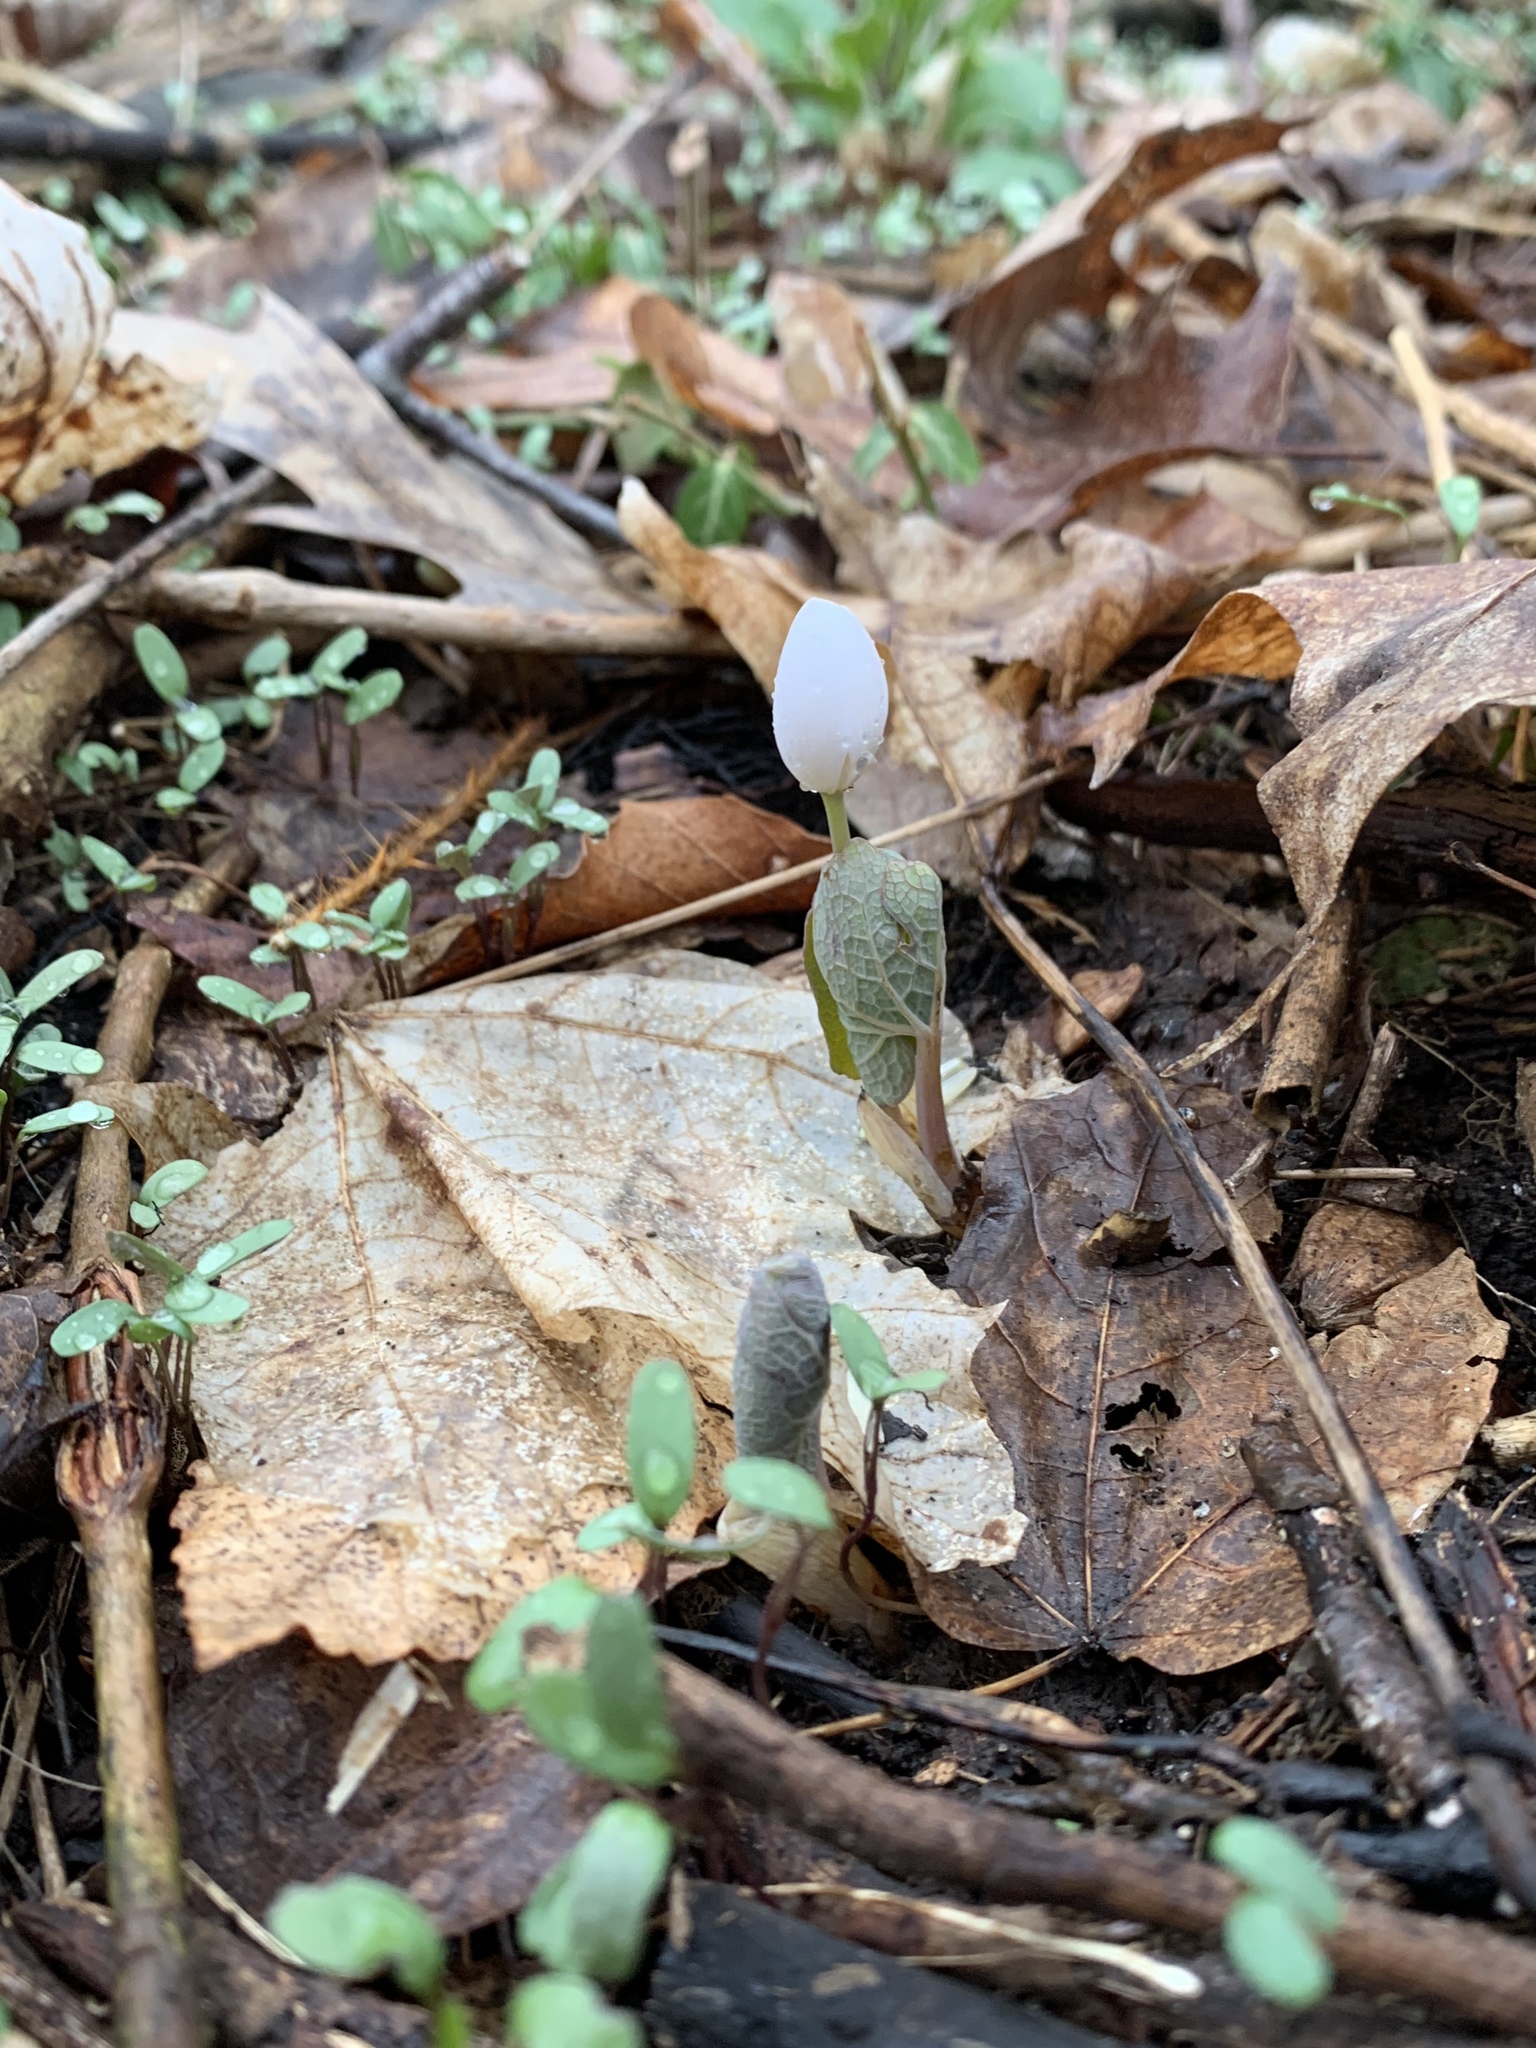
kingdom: Plantae
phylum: Tracheophyta
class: Magnoliopsida
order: Ranunculales
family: Papaveraceae
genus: Sanguinaria
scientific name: Sanguinaria canadensis
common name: Bloodroot
